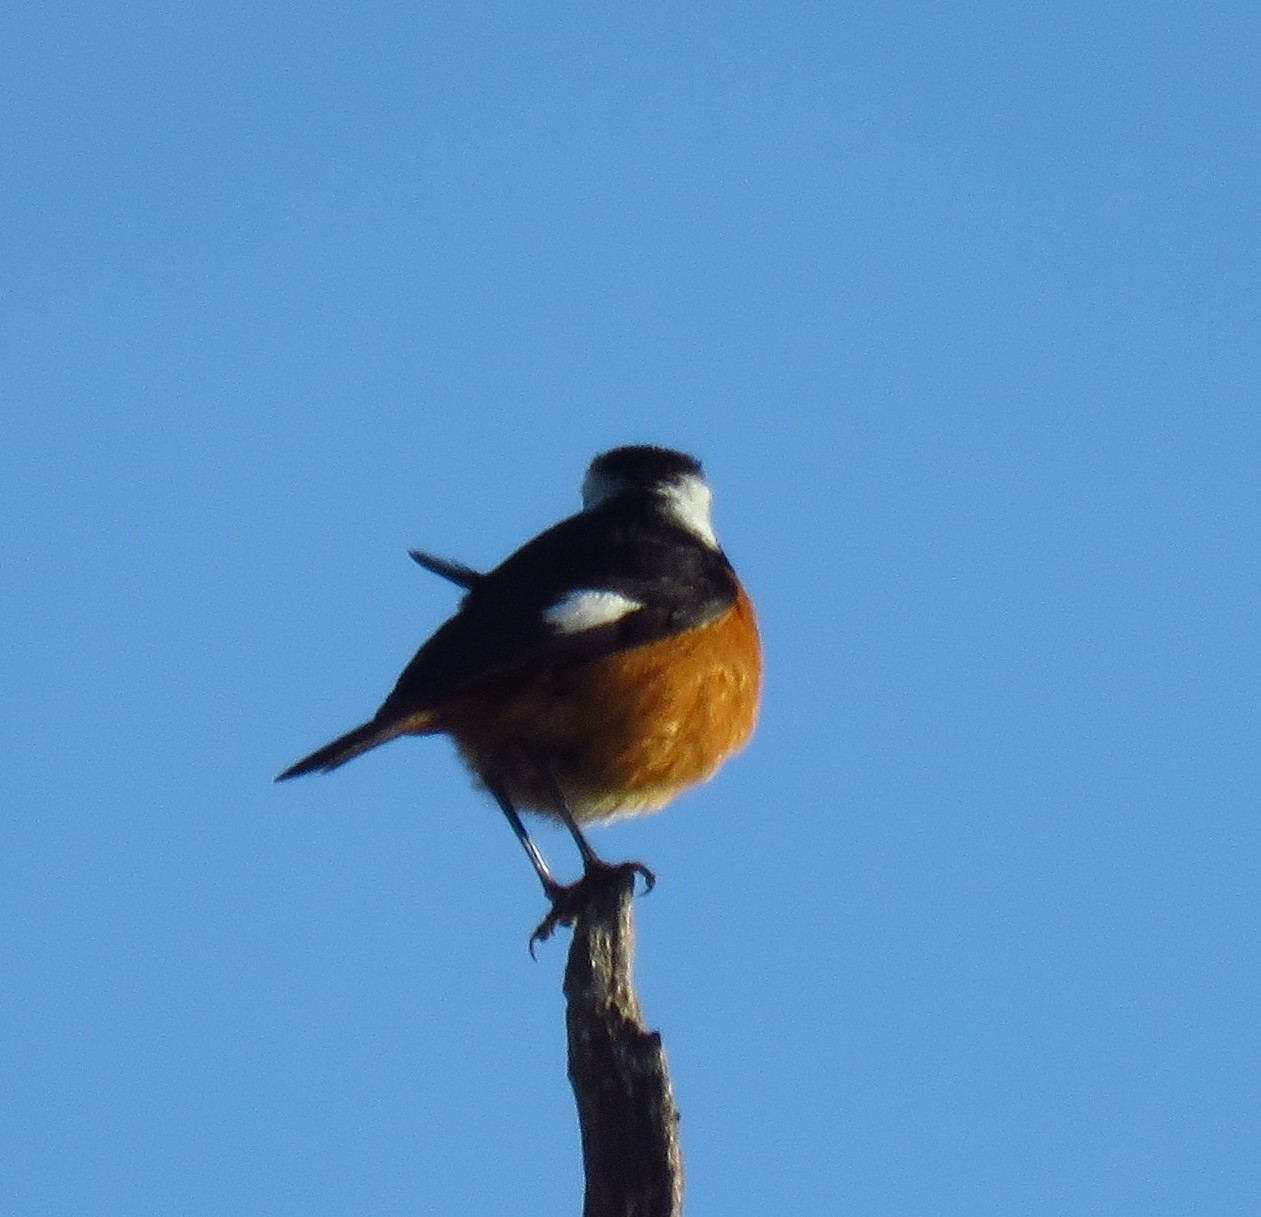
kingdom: Animalia
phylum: Chordata
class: Aves
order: Passeriformes
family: Muscicapidae
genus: Phoenicurus
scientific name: Phoenicurus moussieri
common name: Moussier's redstart
